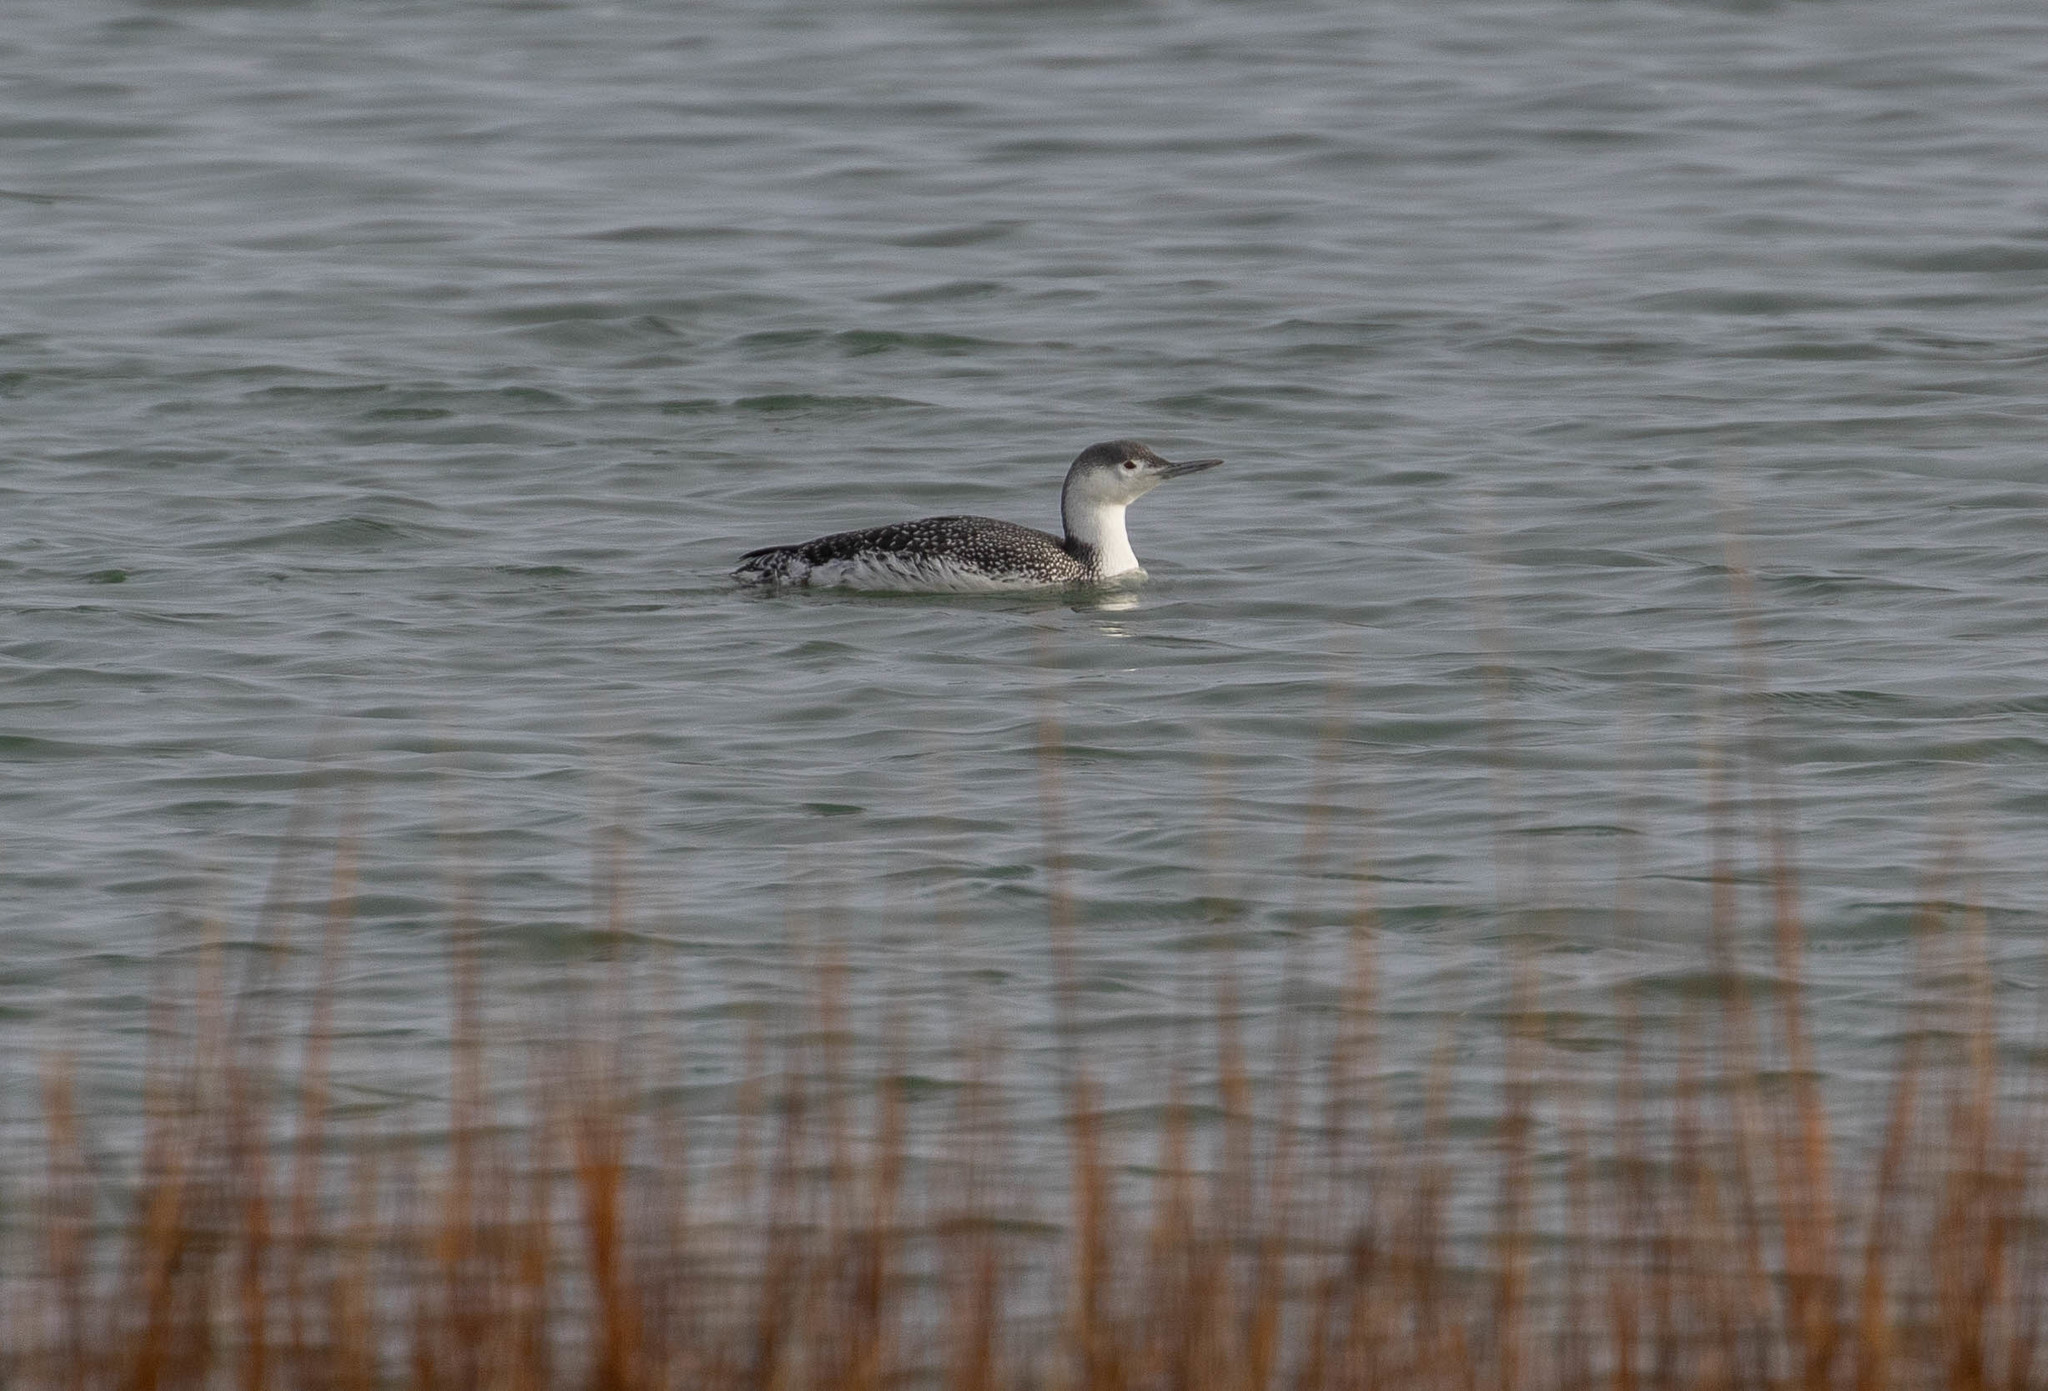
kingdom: Animalia
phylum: Chordata
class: Aves
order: Gaviiformes
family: Gaviidae
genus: Gavia
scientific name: Gavia stellata
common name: Red-throated loon
